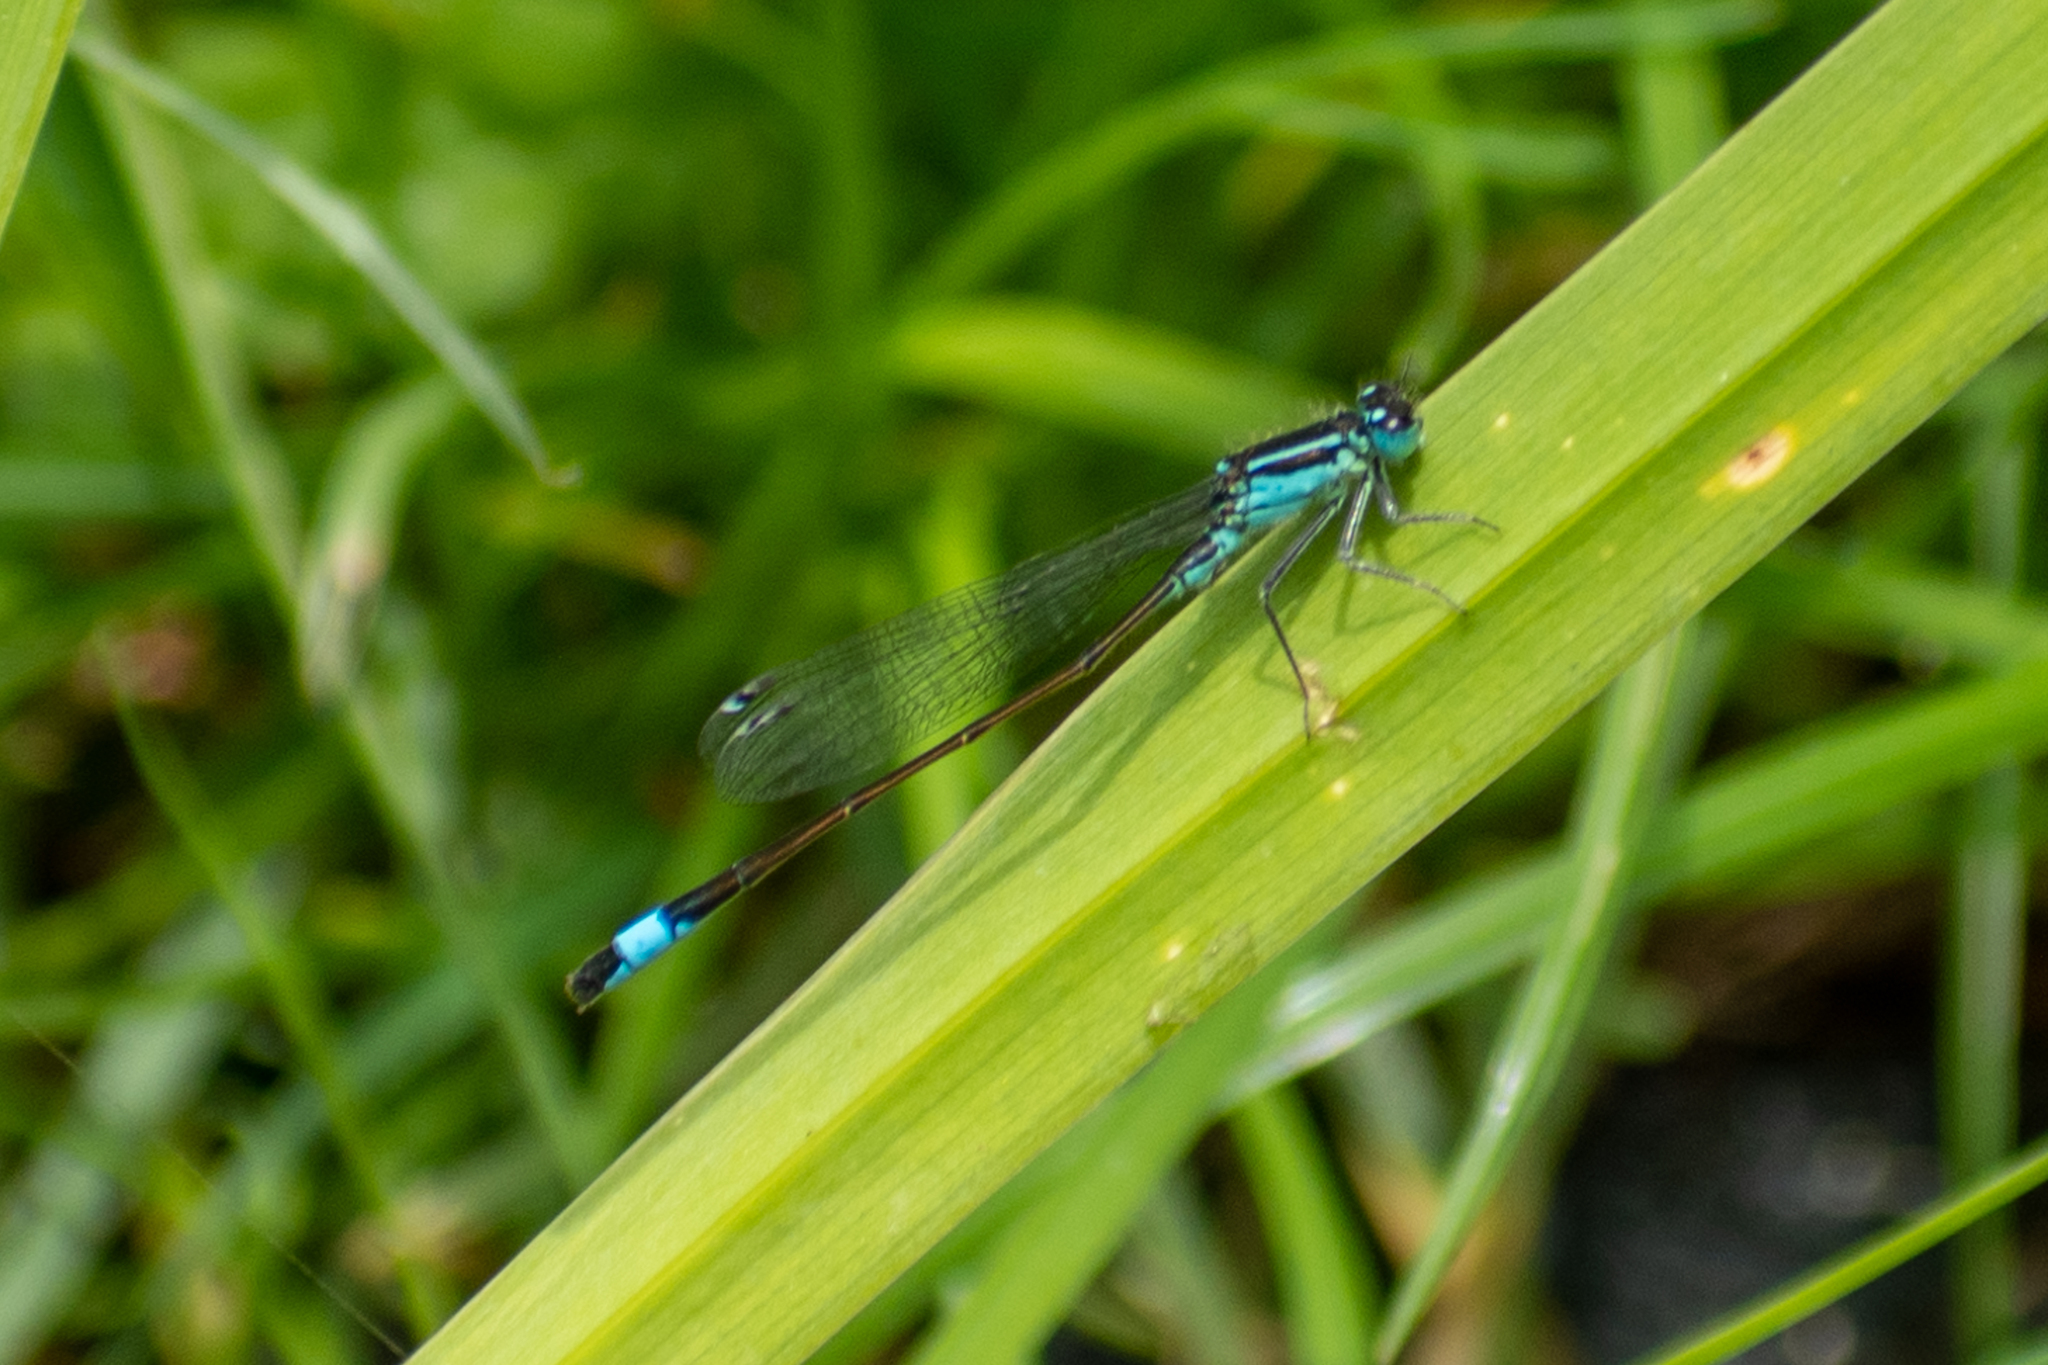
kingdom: Animalia
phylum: Arthropoda
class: Insecta
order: Odonata
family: Coenagrionidae
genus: Ischnura
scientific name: Ischnura elegans
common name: Blue-tailed damselfly
